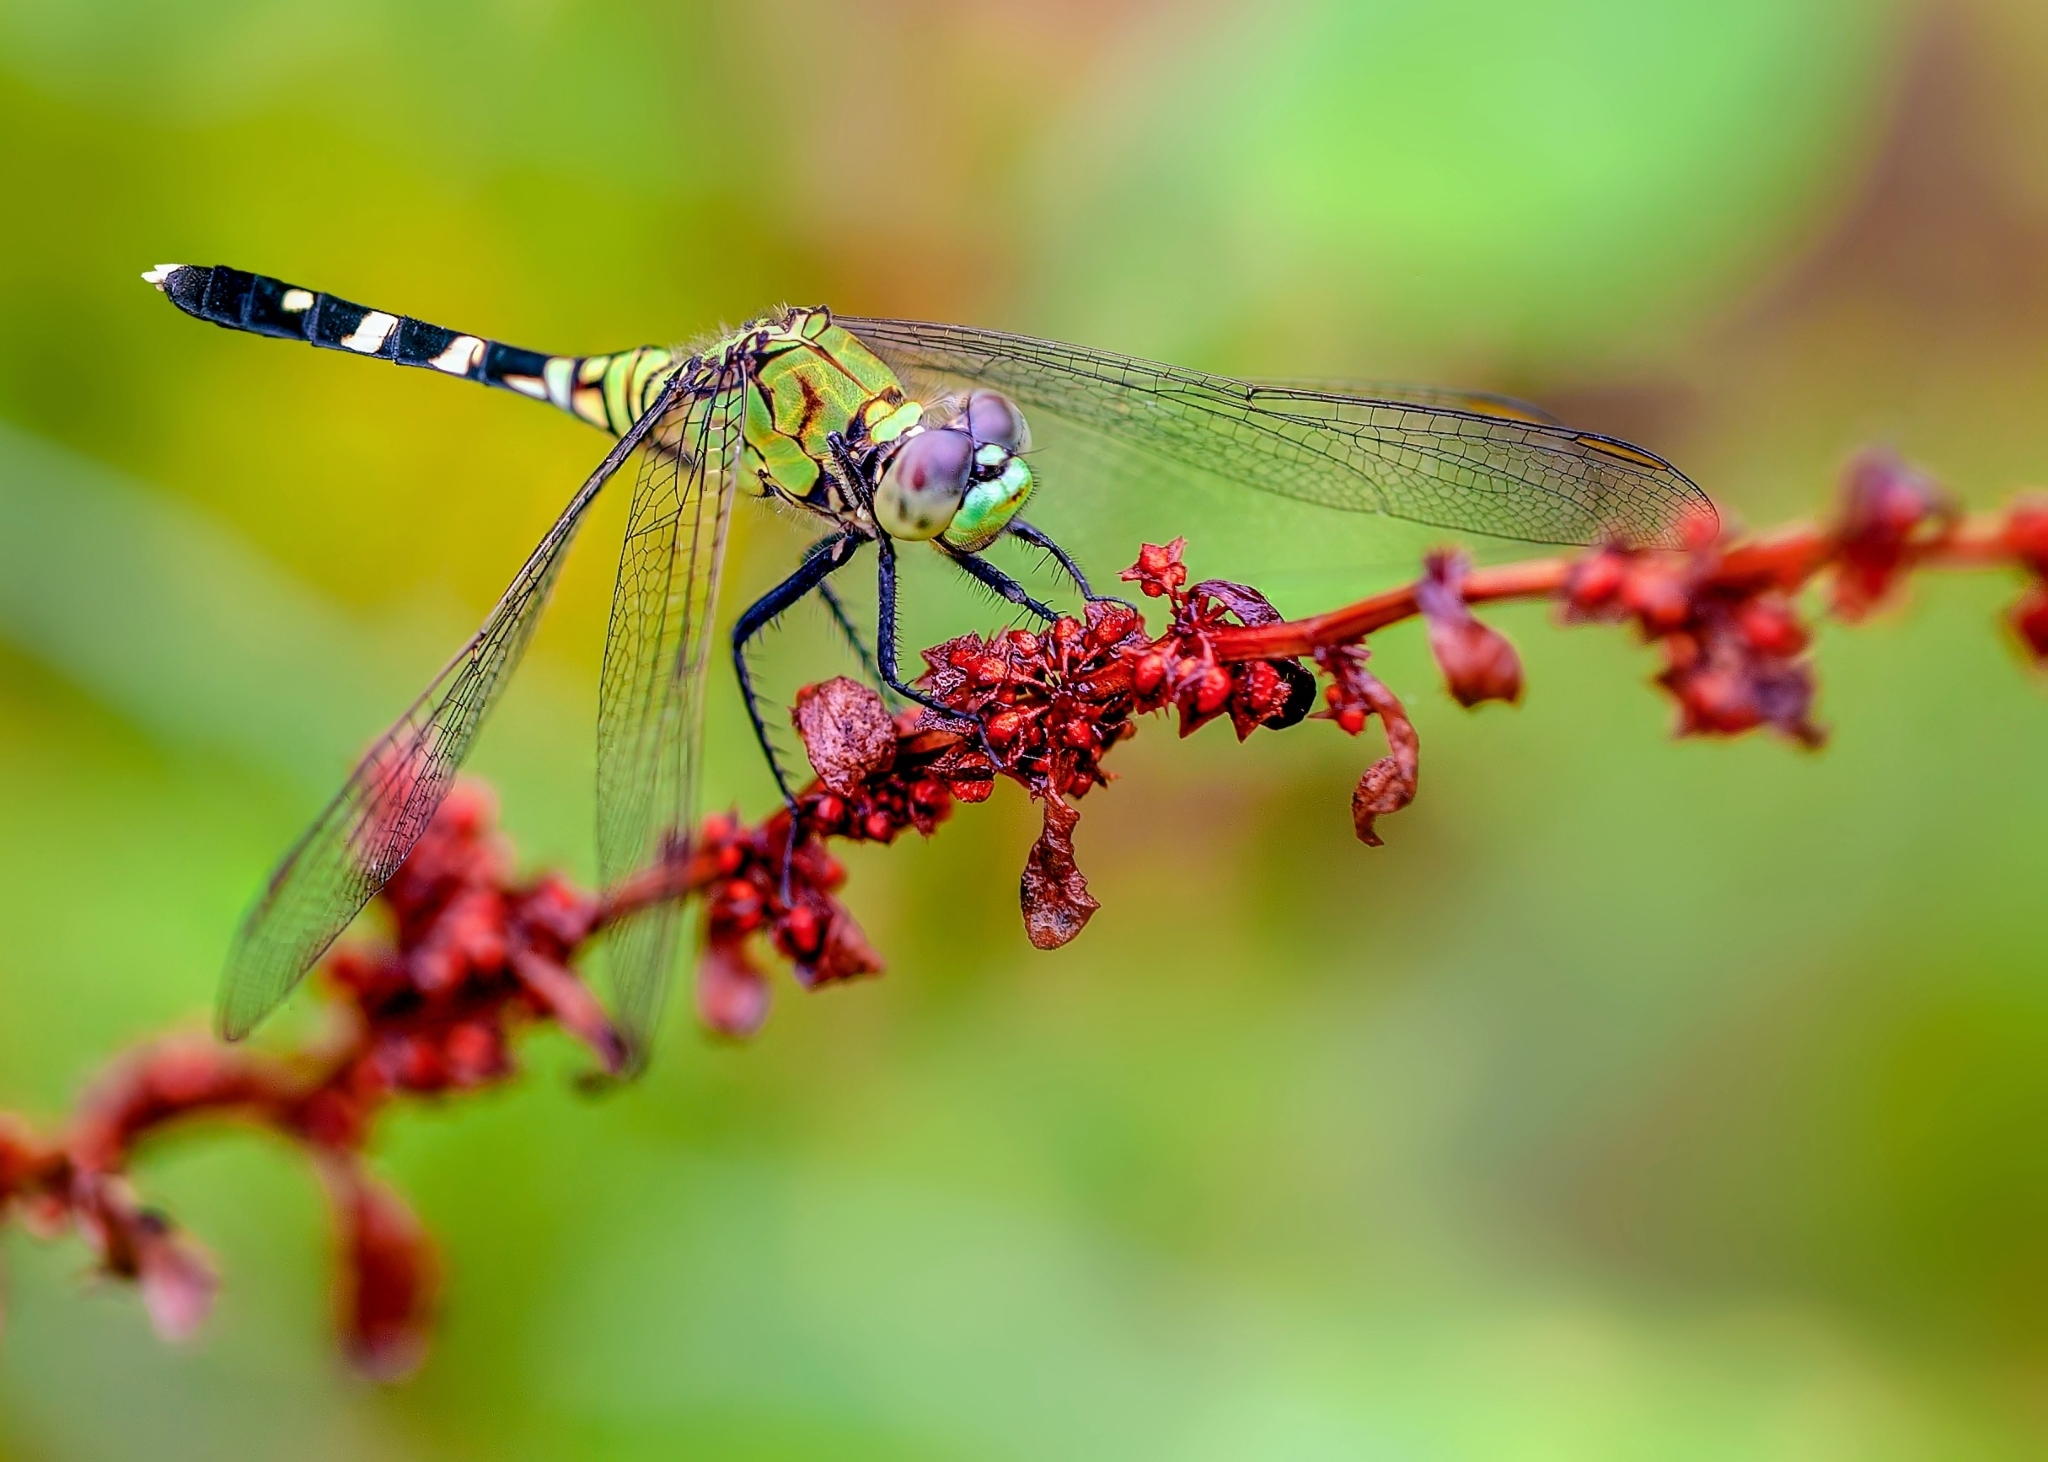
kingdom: Animalia
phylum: Arthropoda
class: Insecta
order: Odonata
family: Libellulidae
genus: Erythemis
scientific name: Erythemis simplicicollis
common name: Eastern pondhawk
